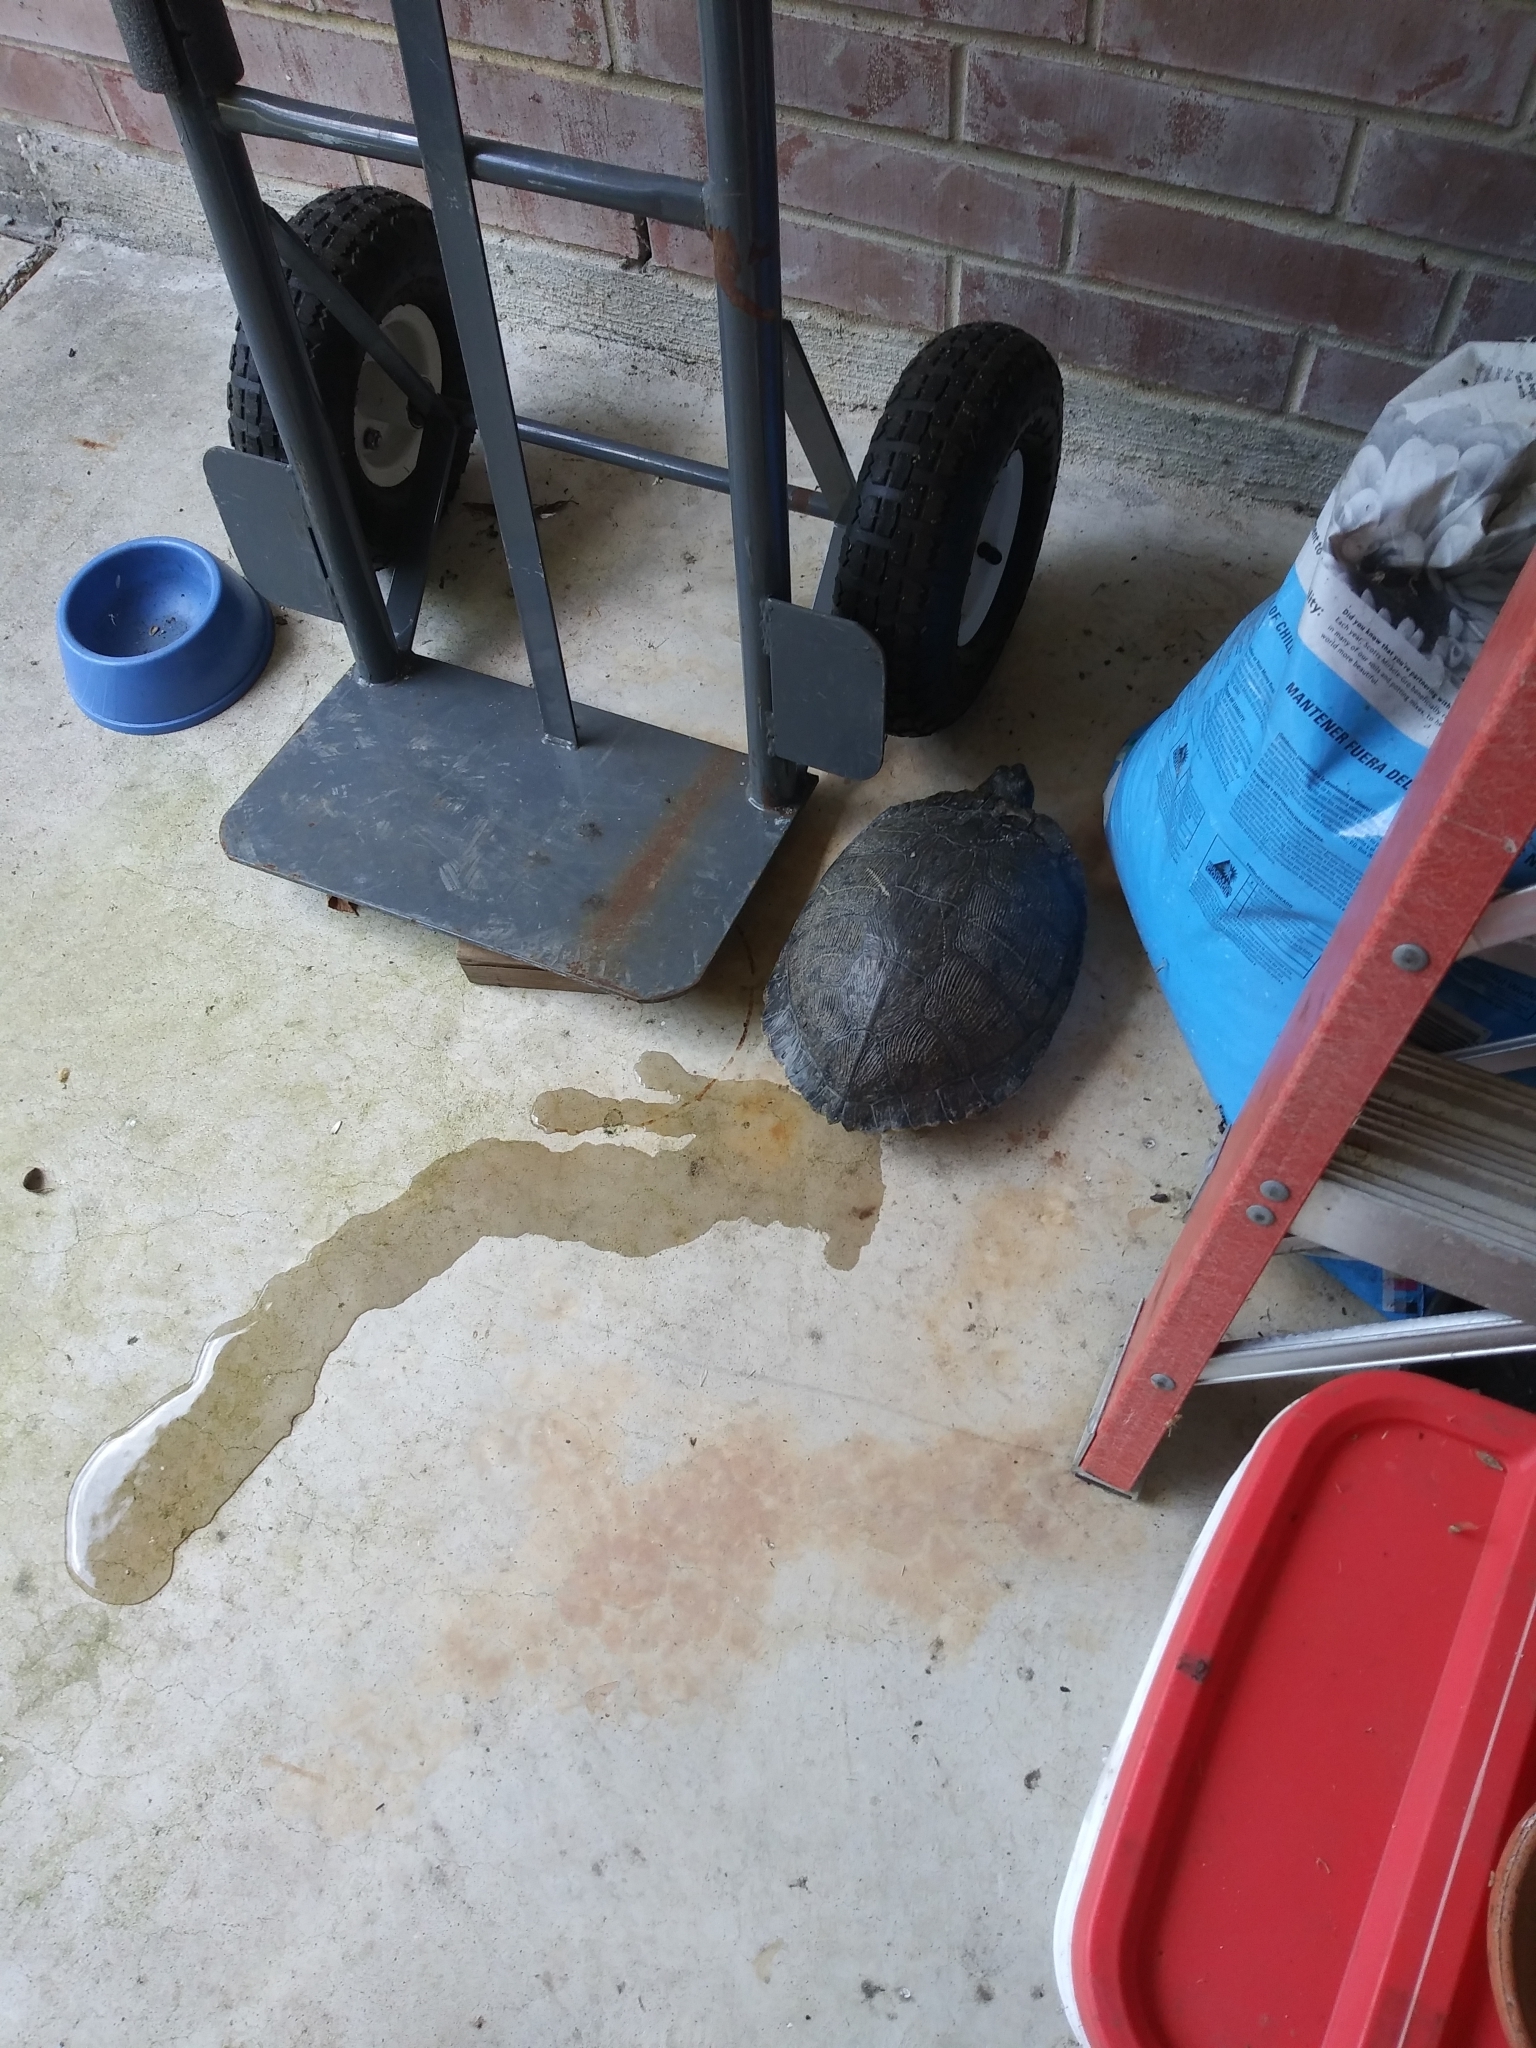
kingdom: Animalia
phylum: Chordata
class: Testudines
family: Emydidae
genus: Trachemys
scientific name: Trachemys scripta
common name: Slider
